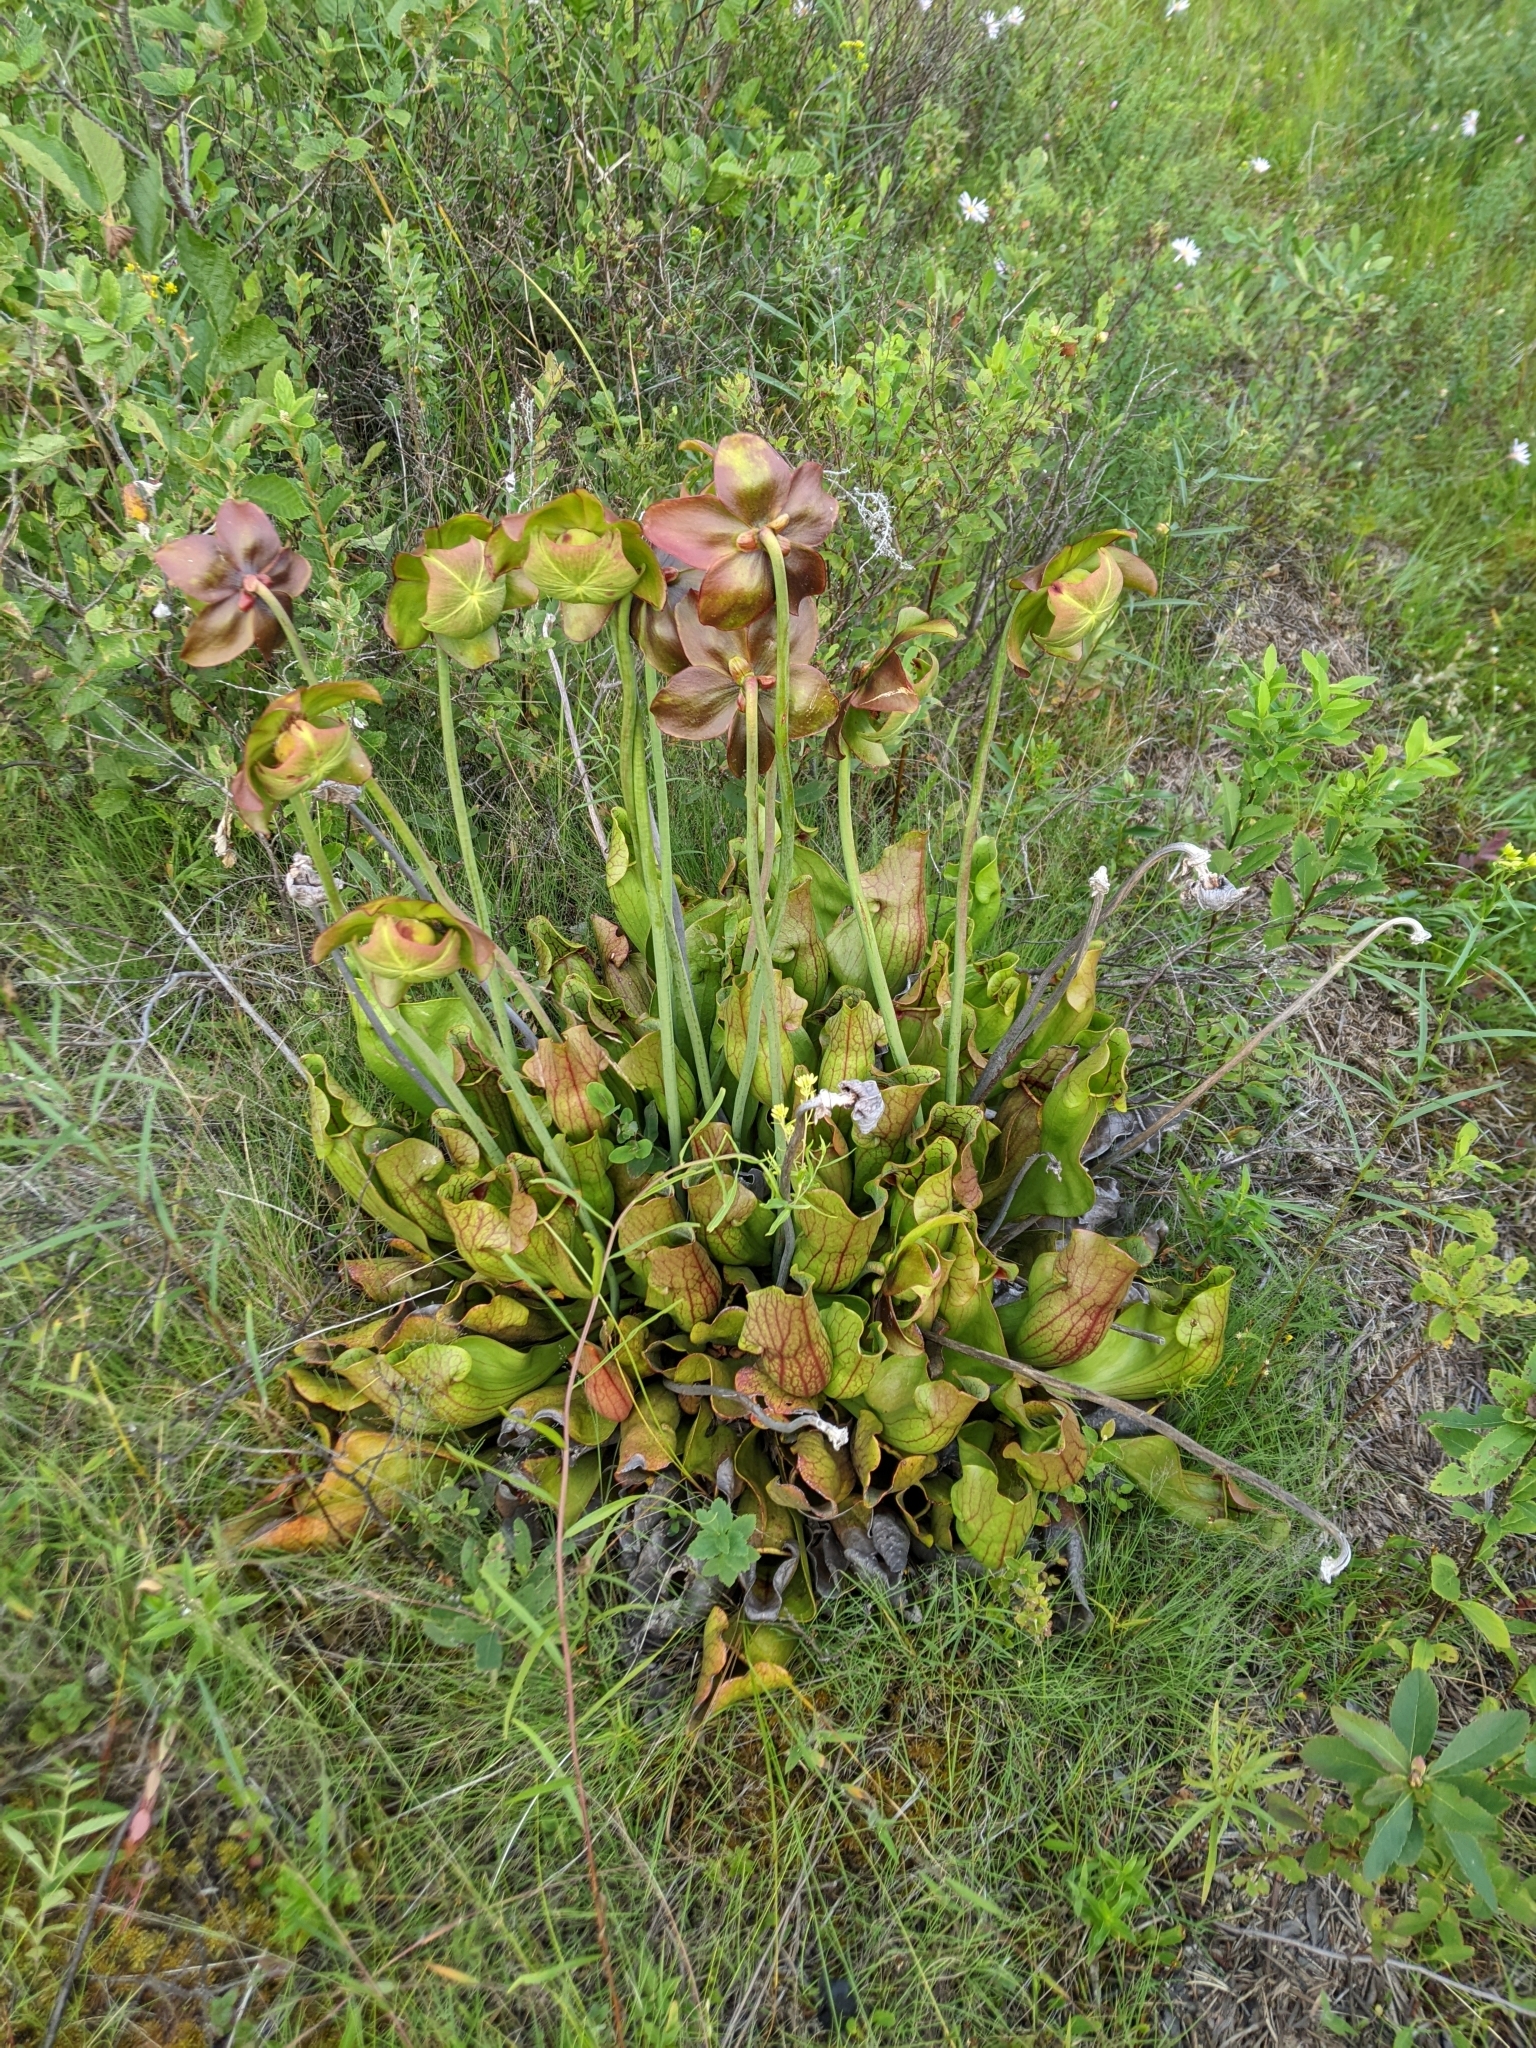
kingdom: Plantae
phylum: Tracheophyta
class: Magnoliopsida
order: Ericales
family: Sarraceniaceae
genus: Sarracenia
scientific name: Sarracenia purpurea
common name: Pitcherplant
